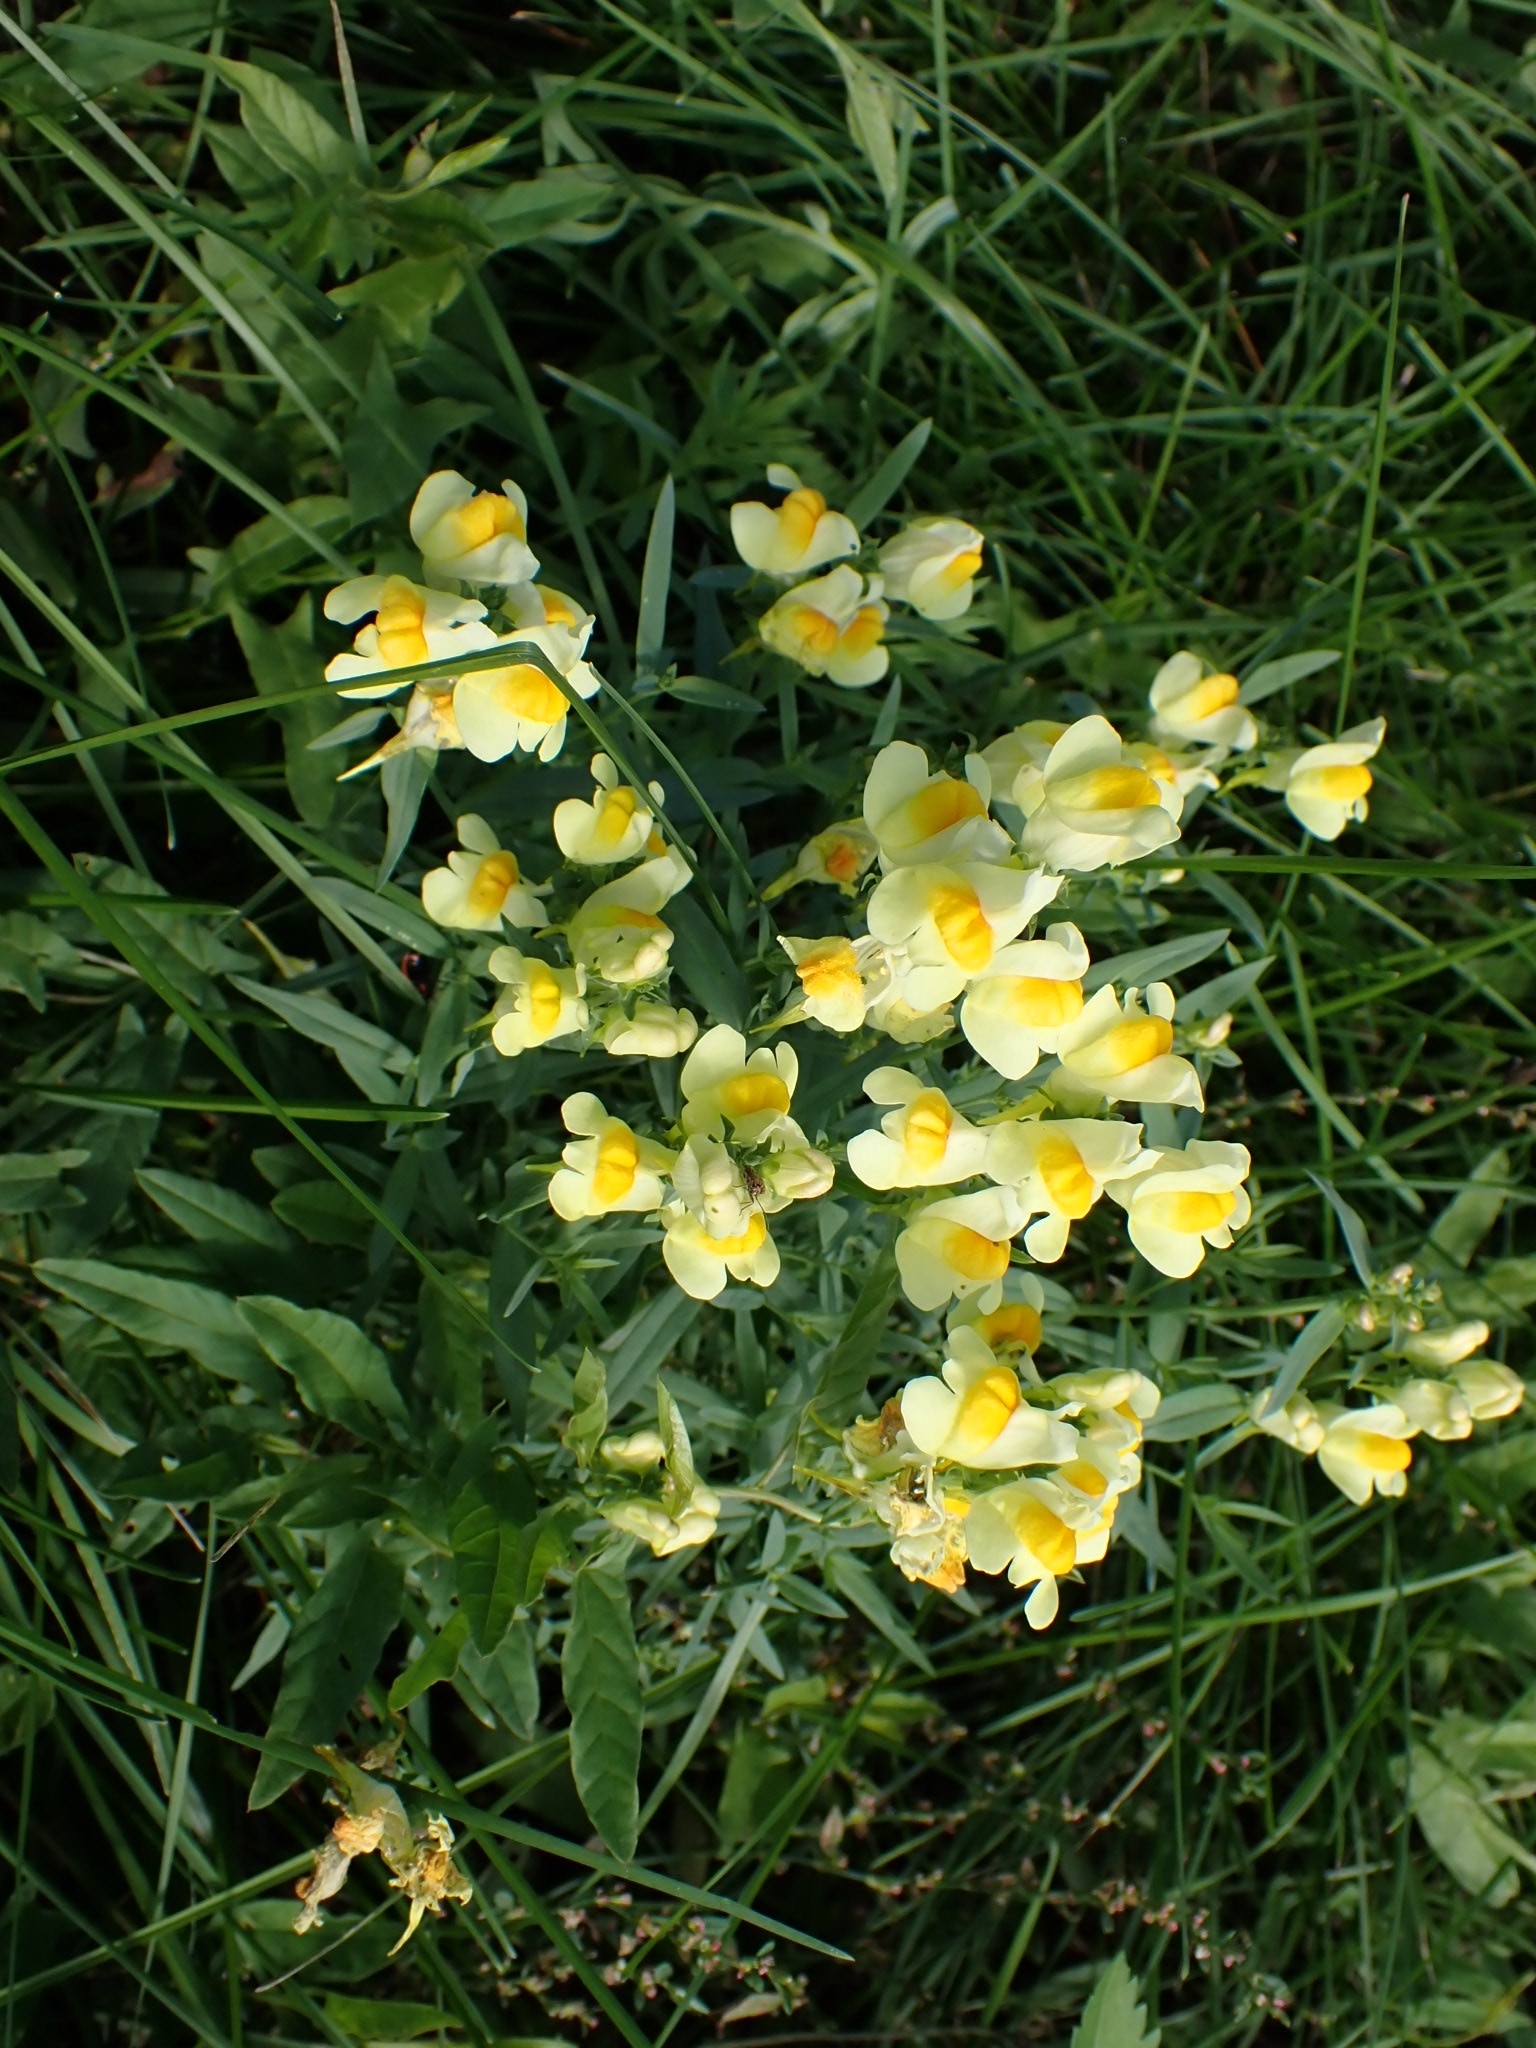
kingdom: Plantae
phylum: Tracheophyta
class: Magnoliopsida
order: Lamiales
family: Plantaginaceae
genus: Linaria
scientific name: Linaria vulgaris
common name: Butter and eggs
